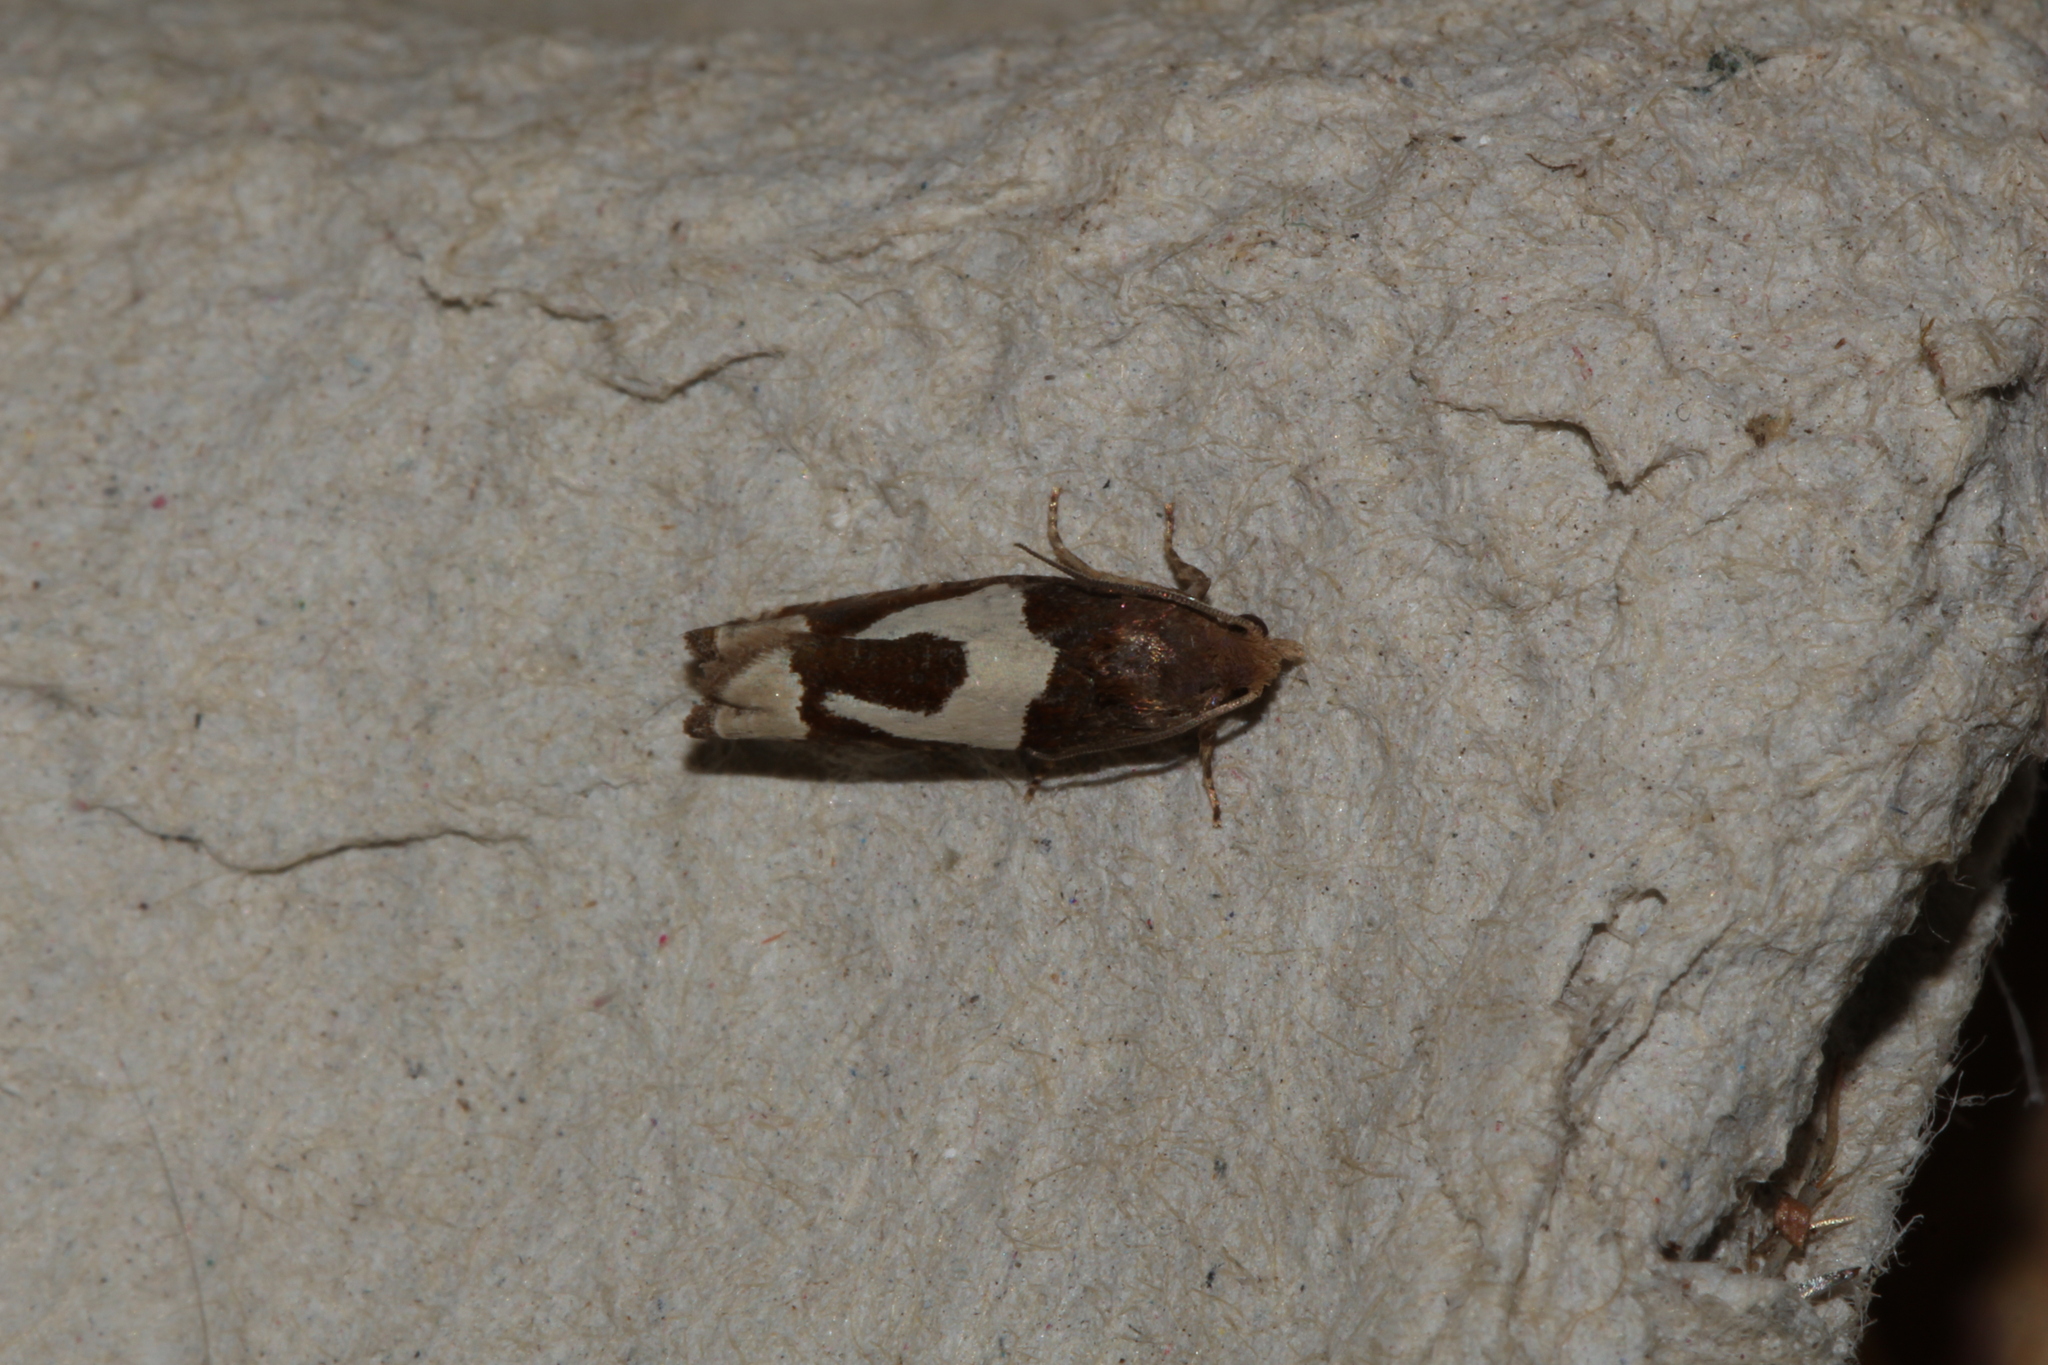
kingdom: Animalia
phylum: Arthropoda
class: Insecta
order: Lepidoptera
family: Tortricidae
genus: Epiblema
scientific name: Epiblema foenella
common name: White-foot bell
